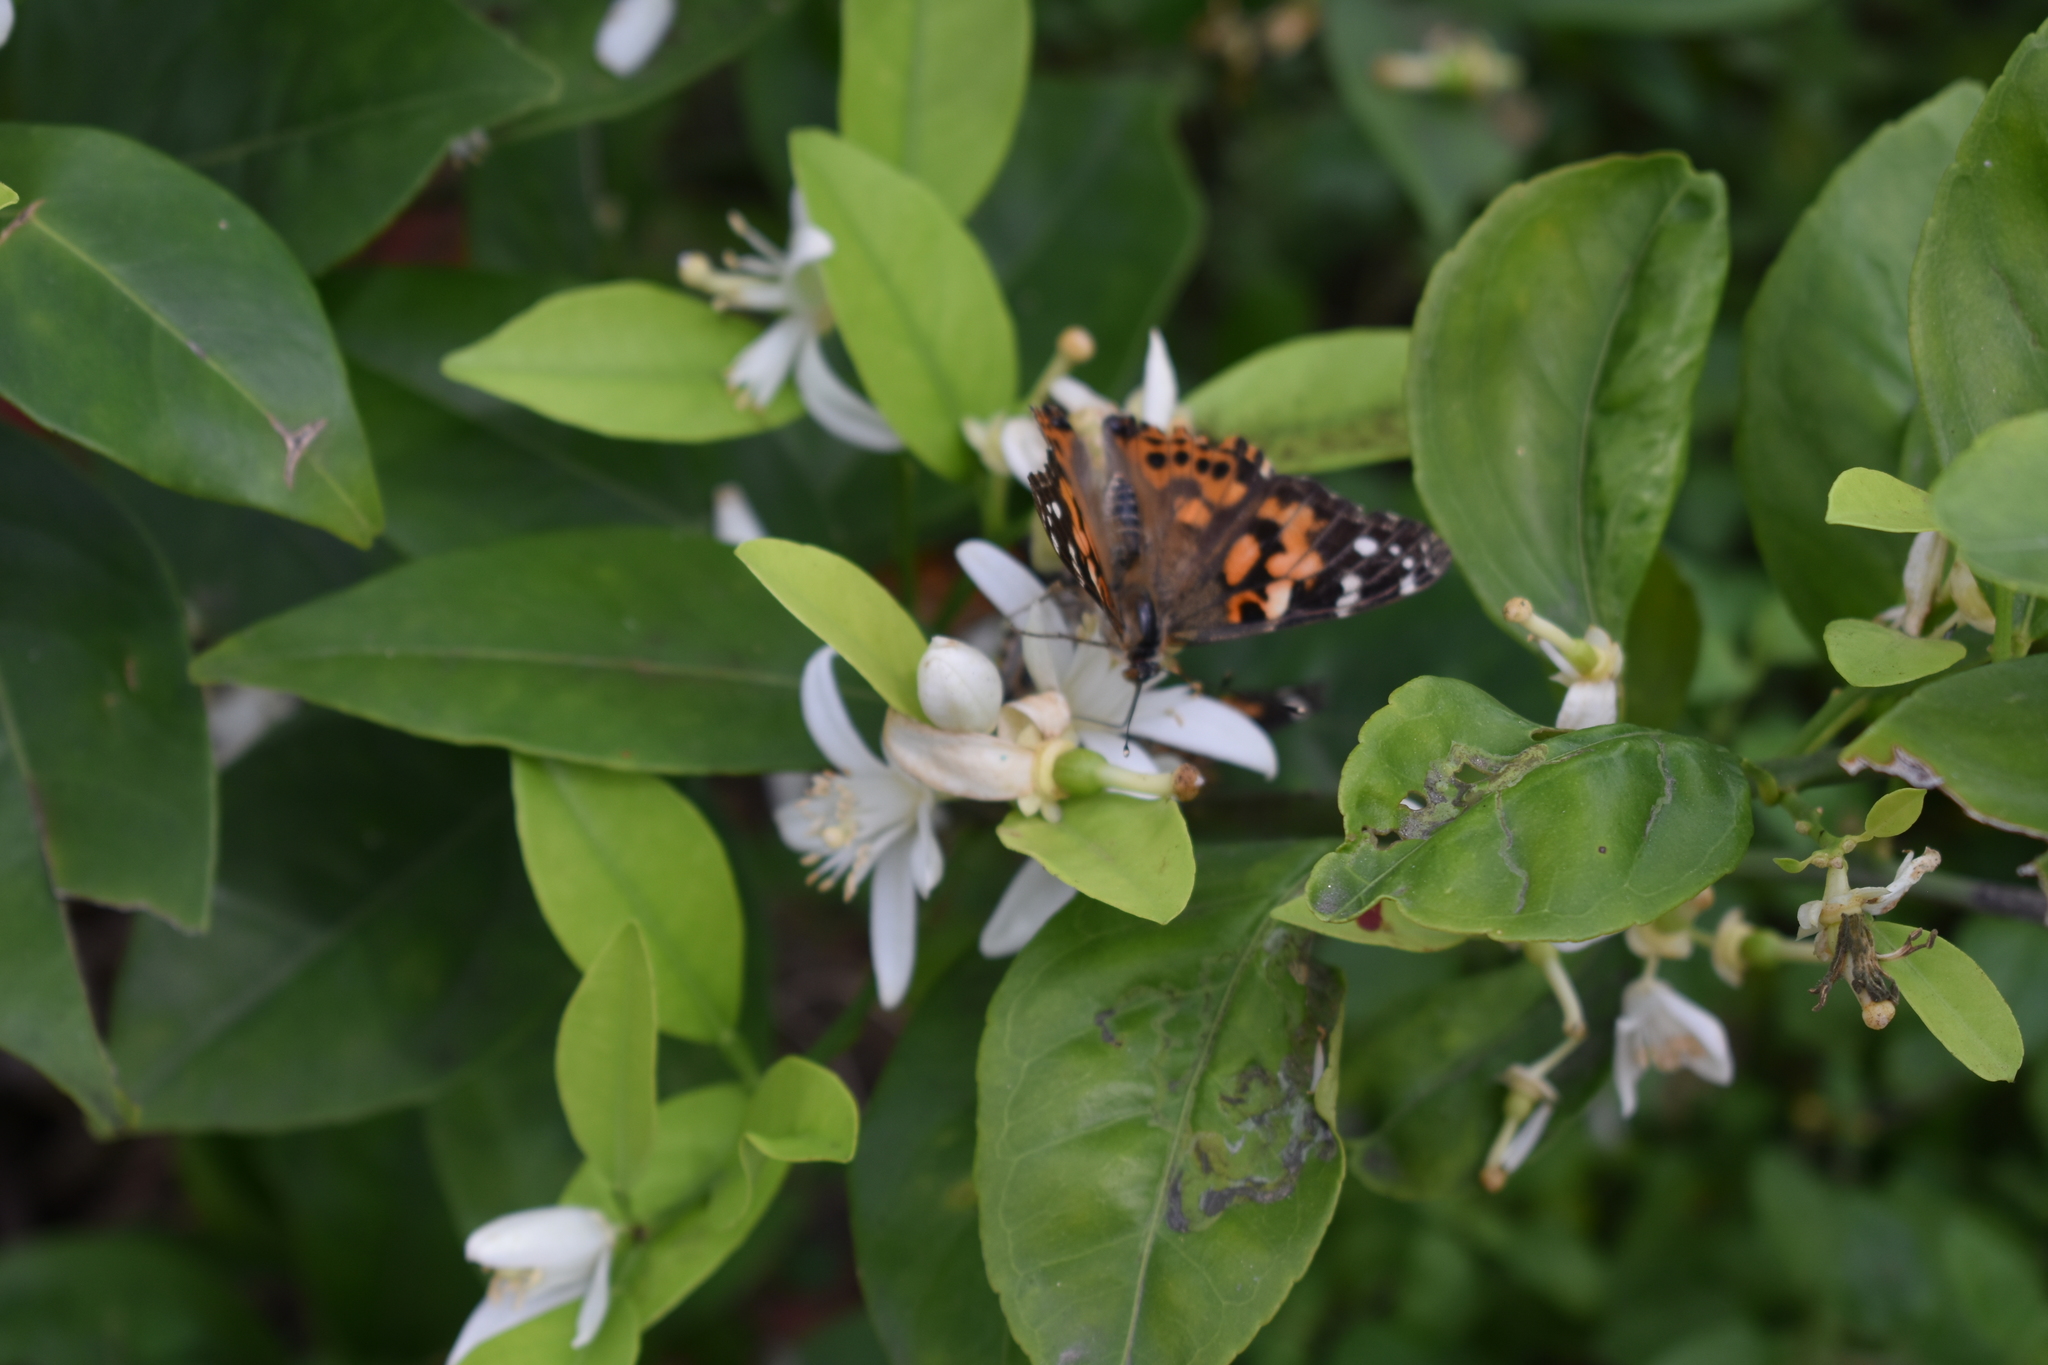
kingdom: Animalia
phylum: Arthropoda
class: Insecta
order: Lepidoptera
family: Nymphalidae
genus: Vanessa
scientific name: Vanessa cardui
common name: Painted lady
